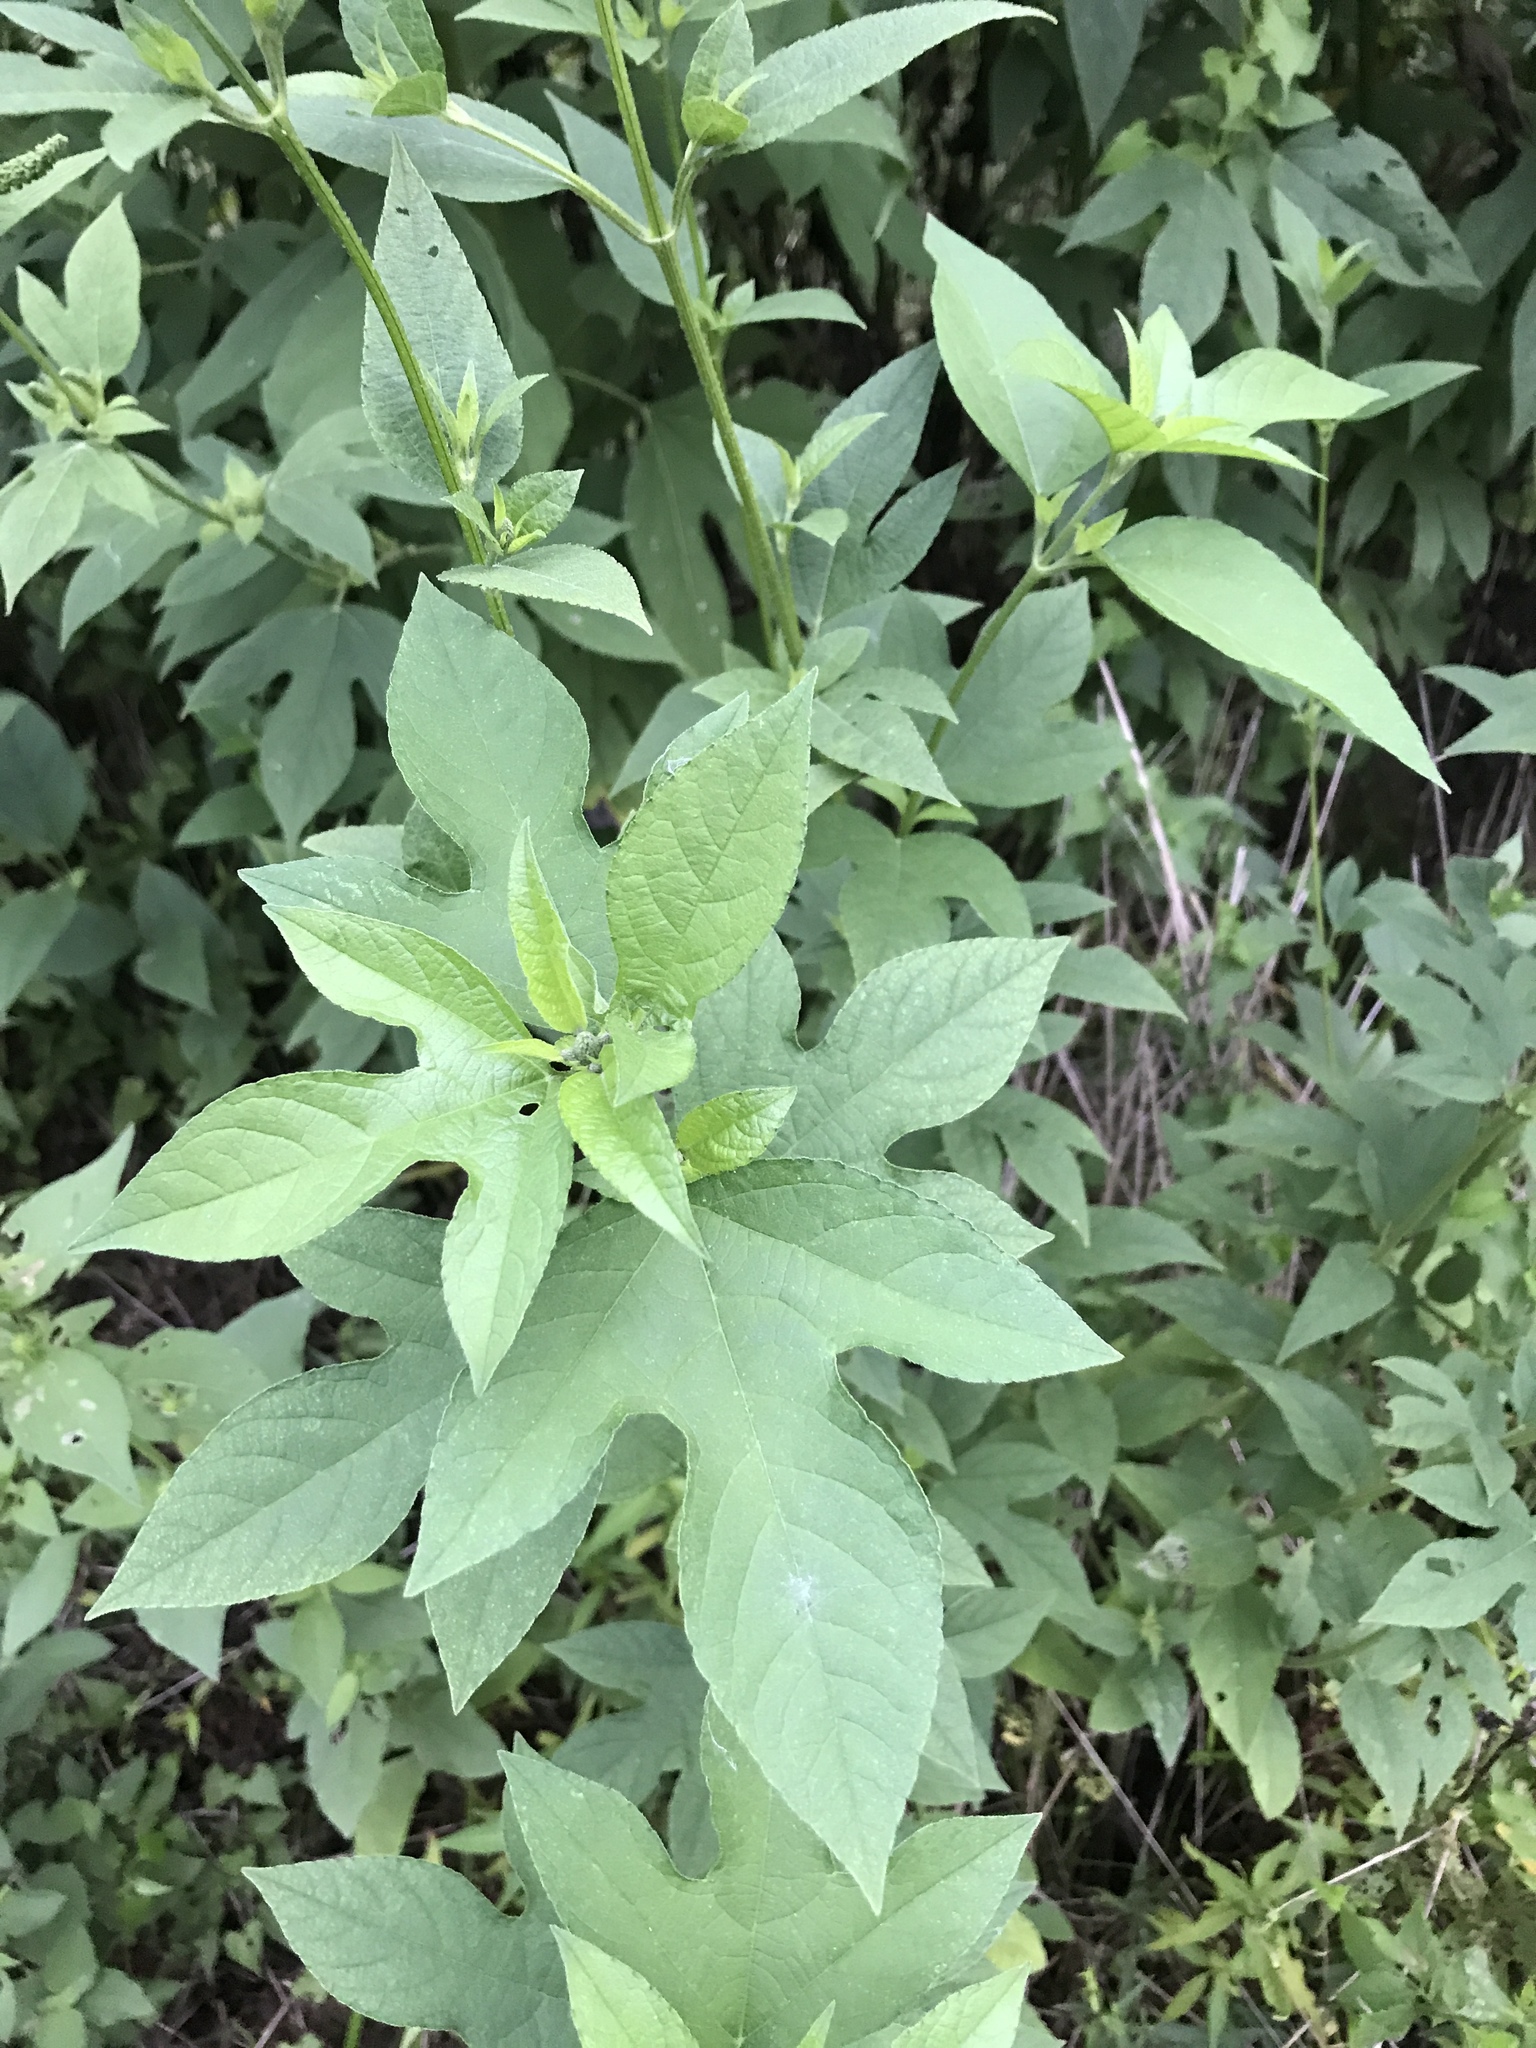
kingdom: Plantae
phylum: Tracheophyta
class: Magnoliopsida
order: Asterales
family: Asteraceae
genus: Ambrosia
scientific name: Ambrosia trifida
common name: Giant ragweed
